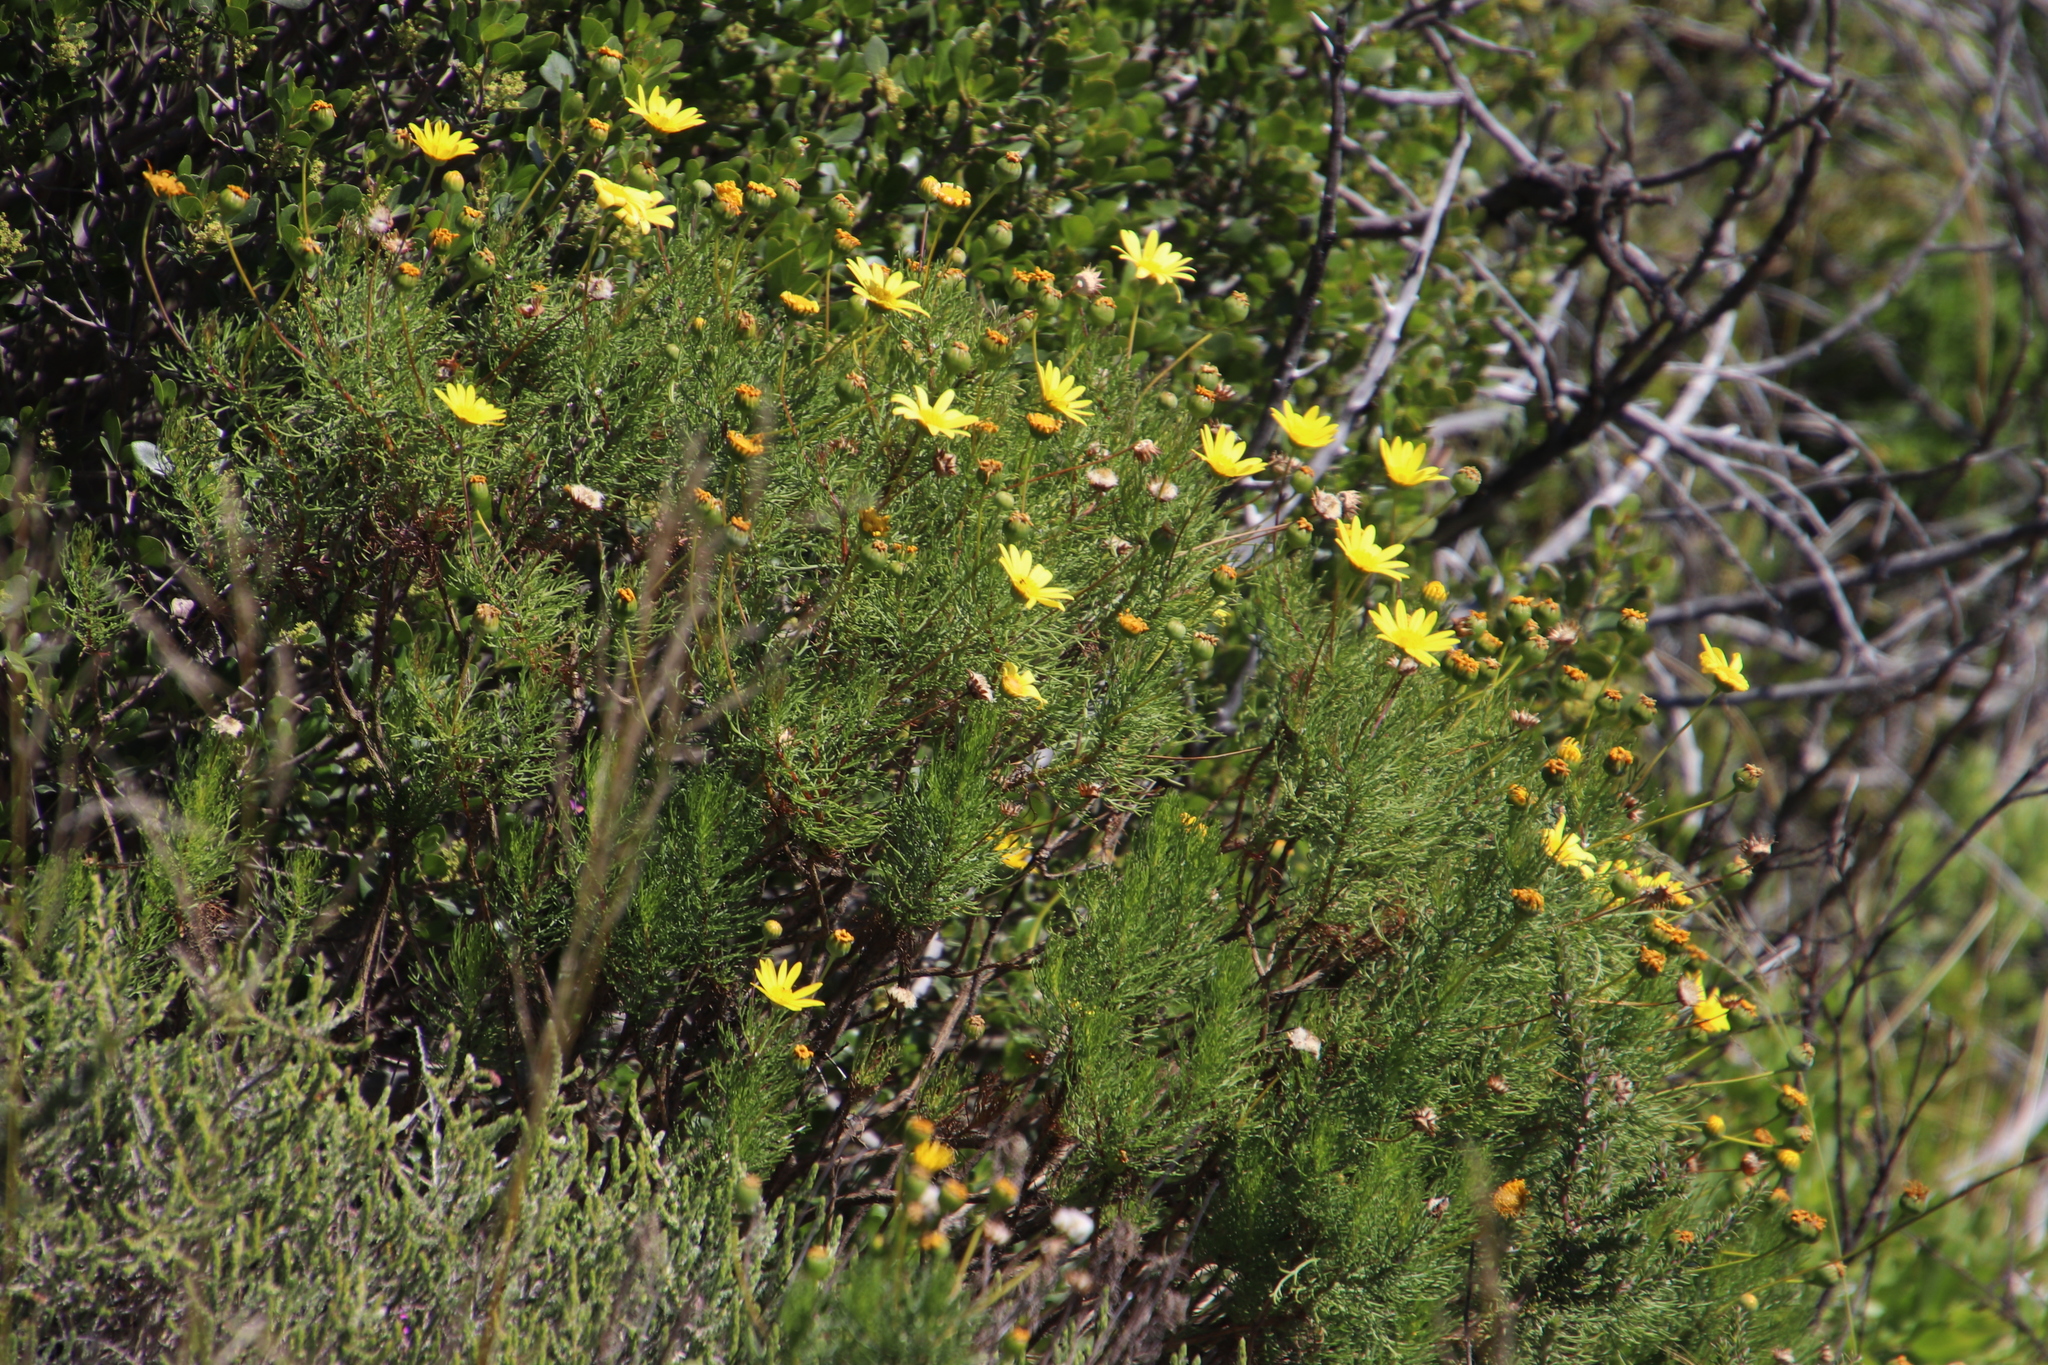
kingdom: Plantae
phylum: Tracheophyta
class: Magnoliopsida
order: Asterales
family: Asteraceae
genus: Euryops
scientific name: Euryops abrotanifolius
